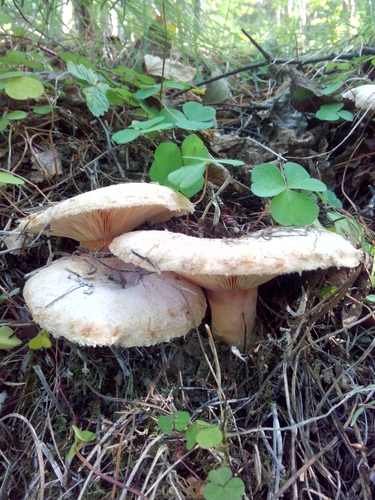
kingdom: Fungi
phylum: Basidiomycota
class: Agaricomycetes
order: Russulales
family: Russulaceae
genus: Lactarius
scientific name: Lactarius pubescens
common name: Bearded milkcap
